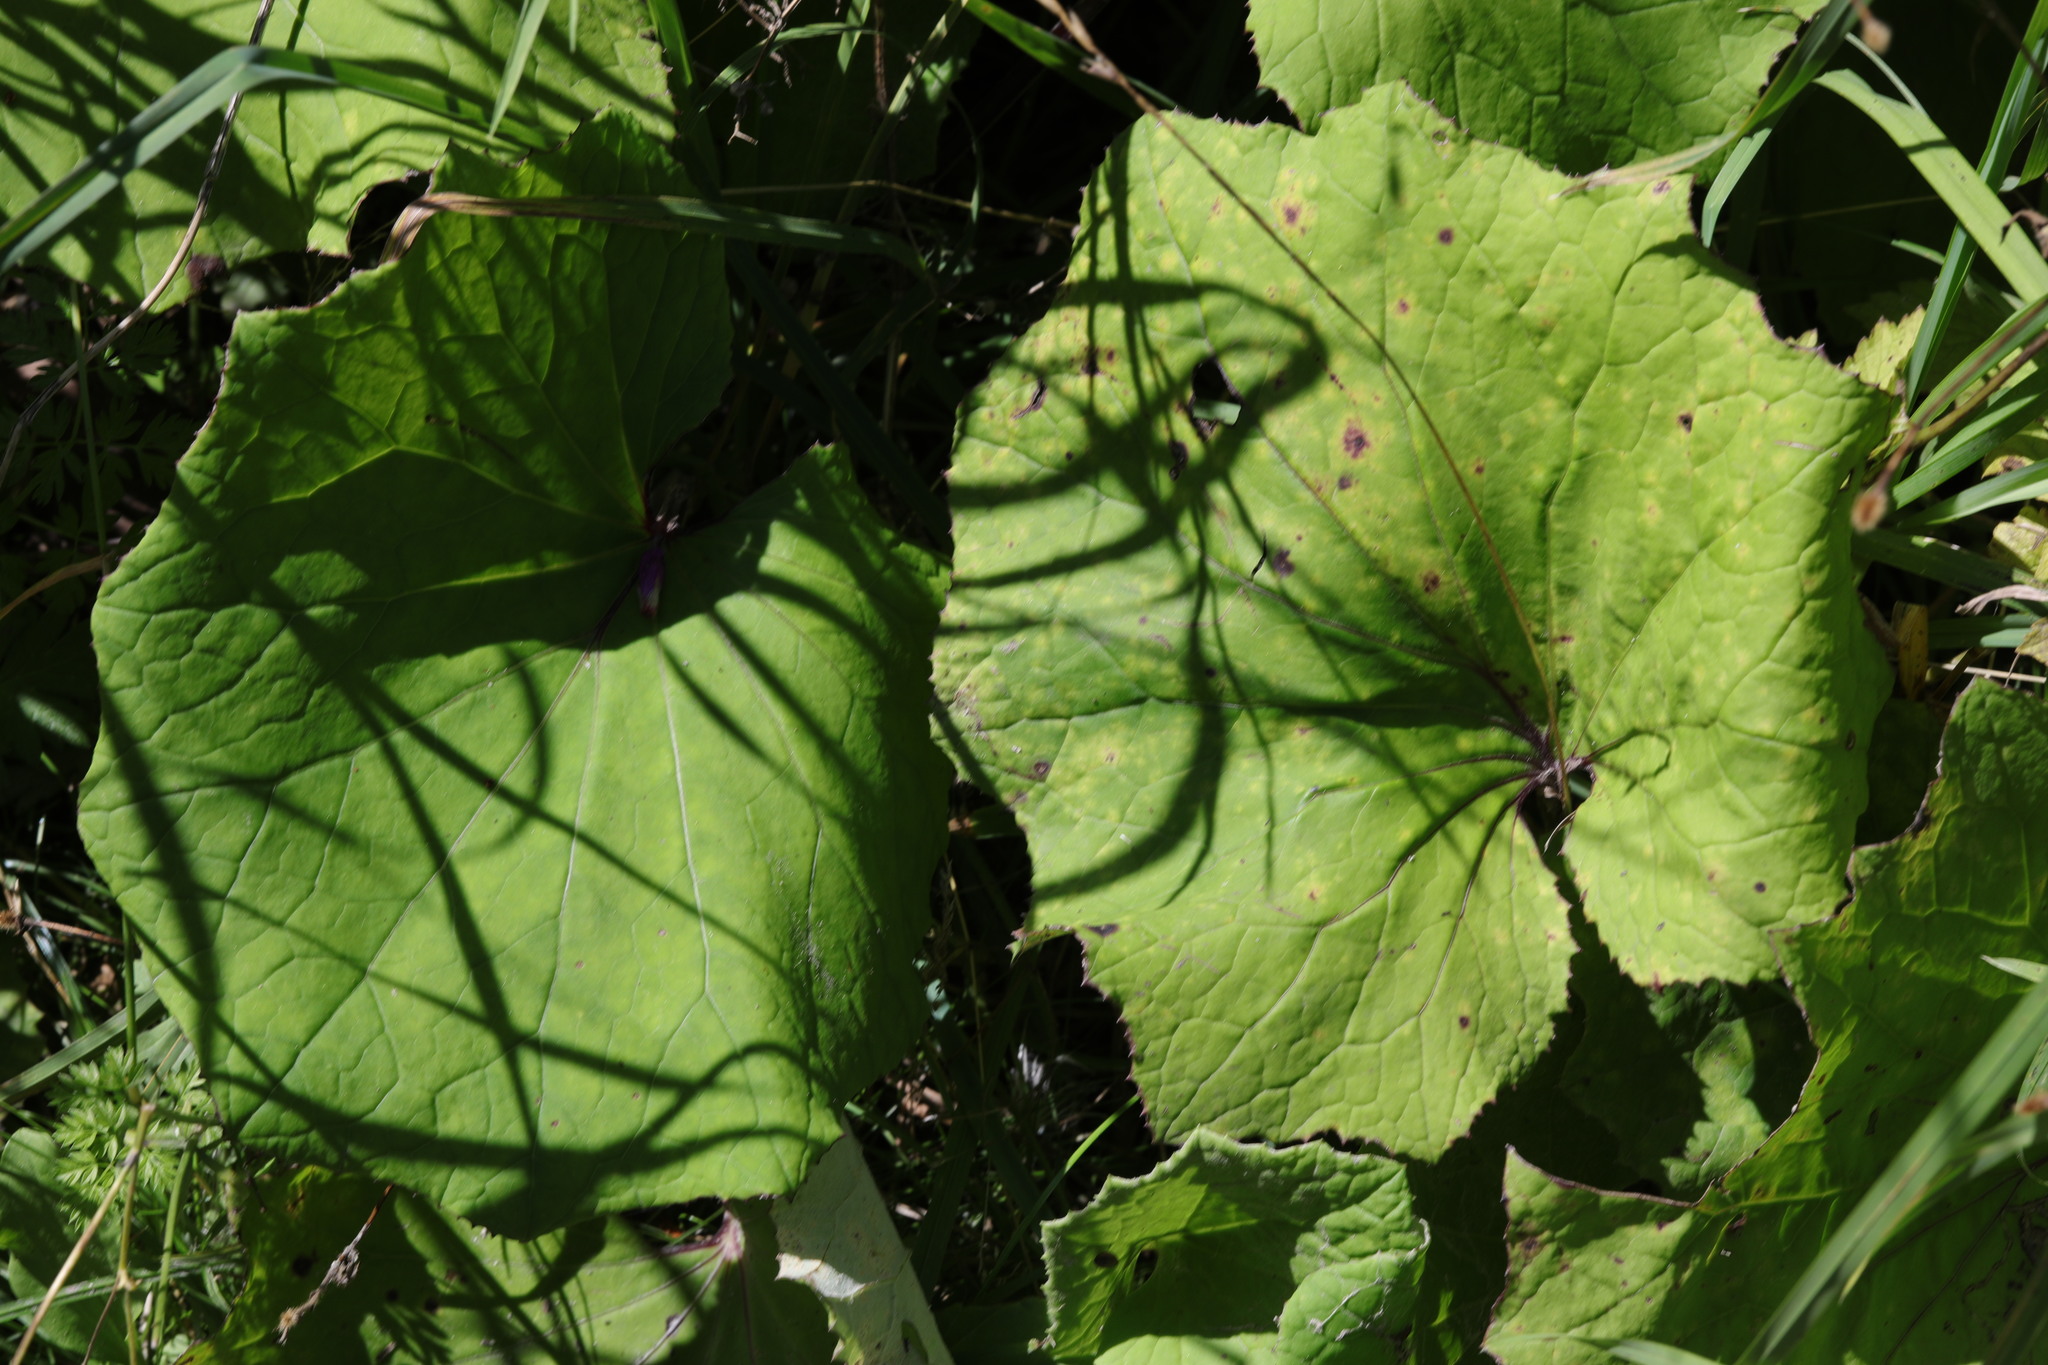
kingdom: Plantae
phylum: Tracheophyta
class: Magnoliopsida
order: Asterales
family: Asteraceae
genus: Tussilago
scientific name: Tussilago farfara
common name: Coltsfoot
